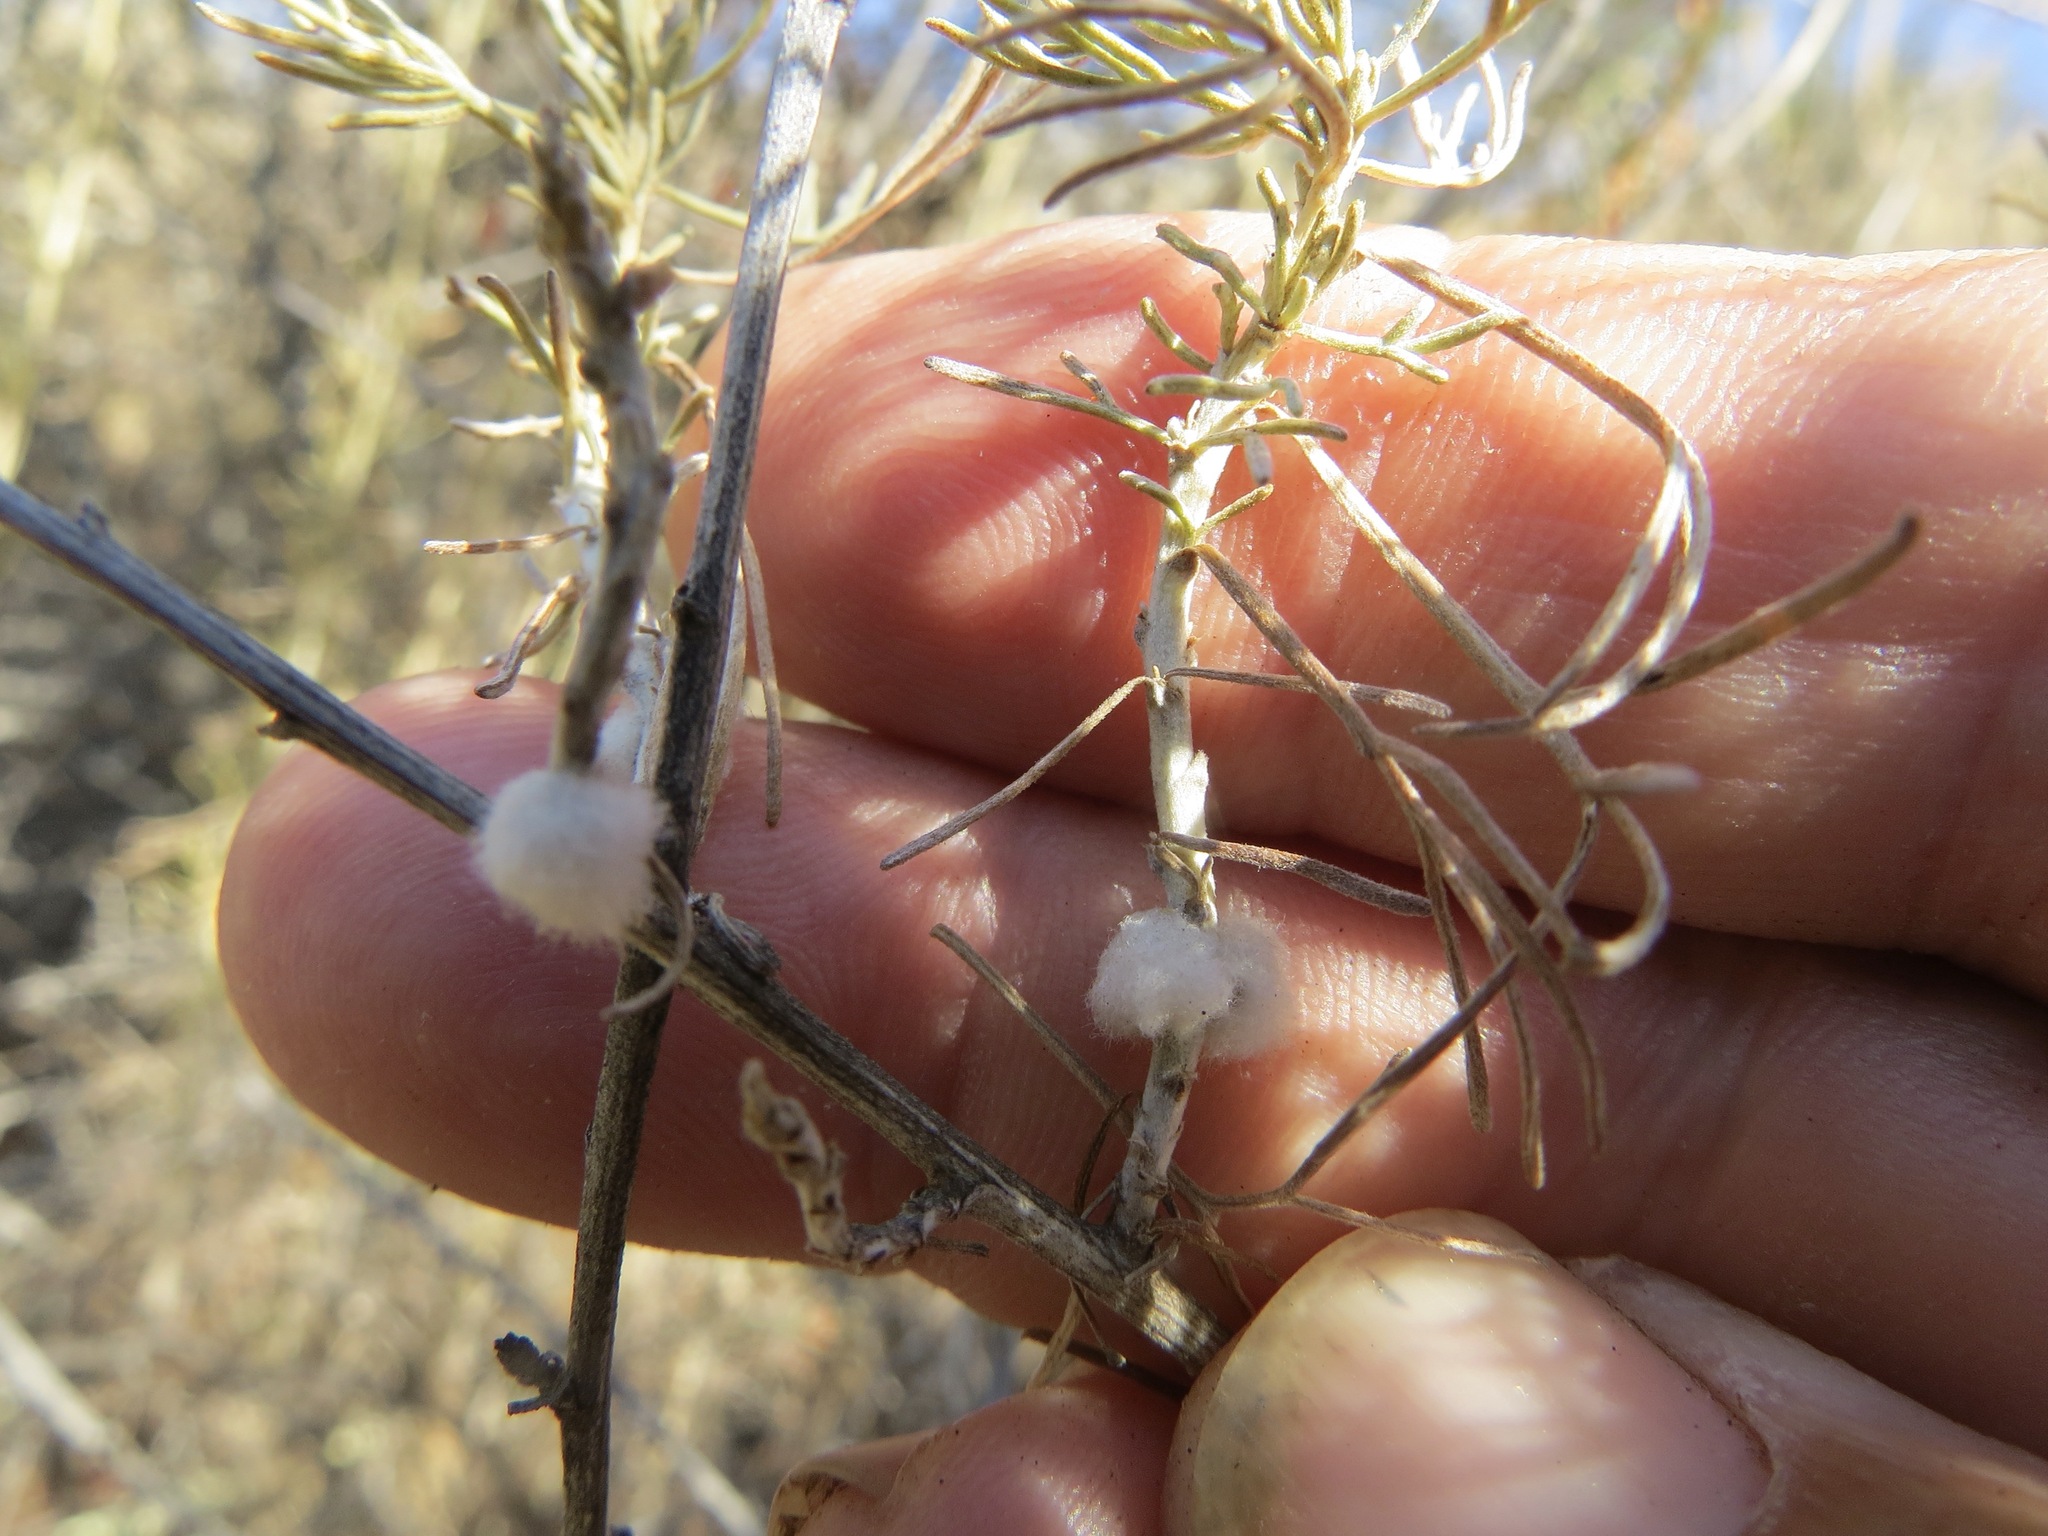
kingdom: Animalia
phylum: Arthropoda
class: Insecta
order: Diptera
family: Cecidomyiidae
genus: Rhopalomyia
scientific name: Rhopalomyia floccosa
